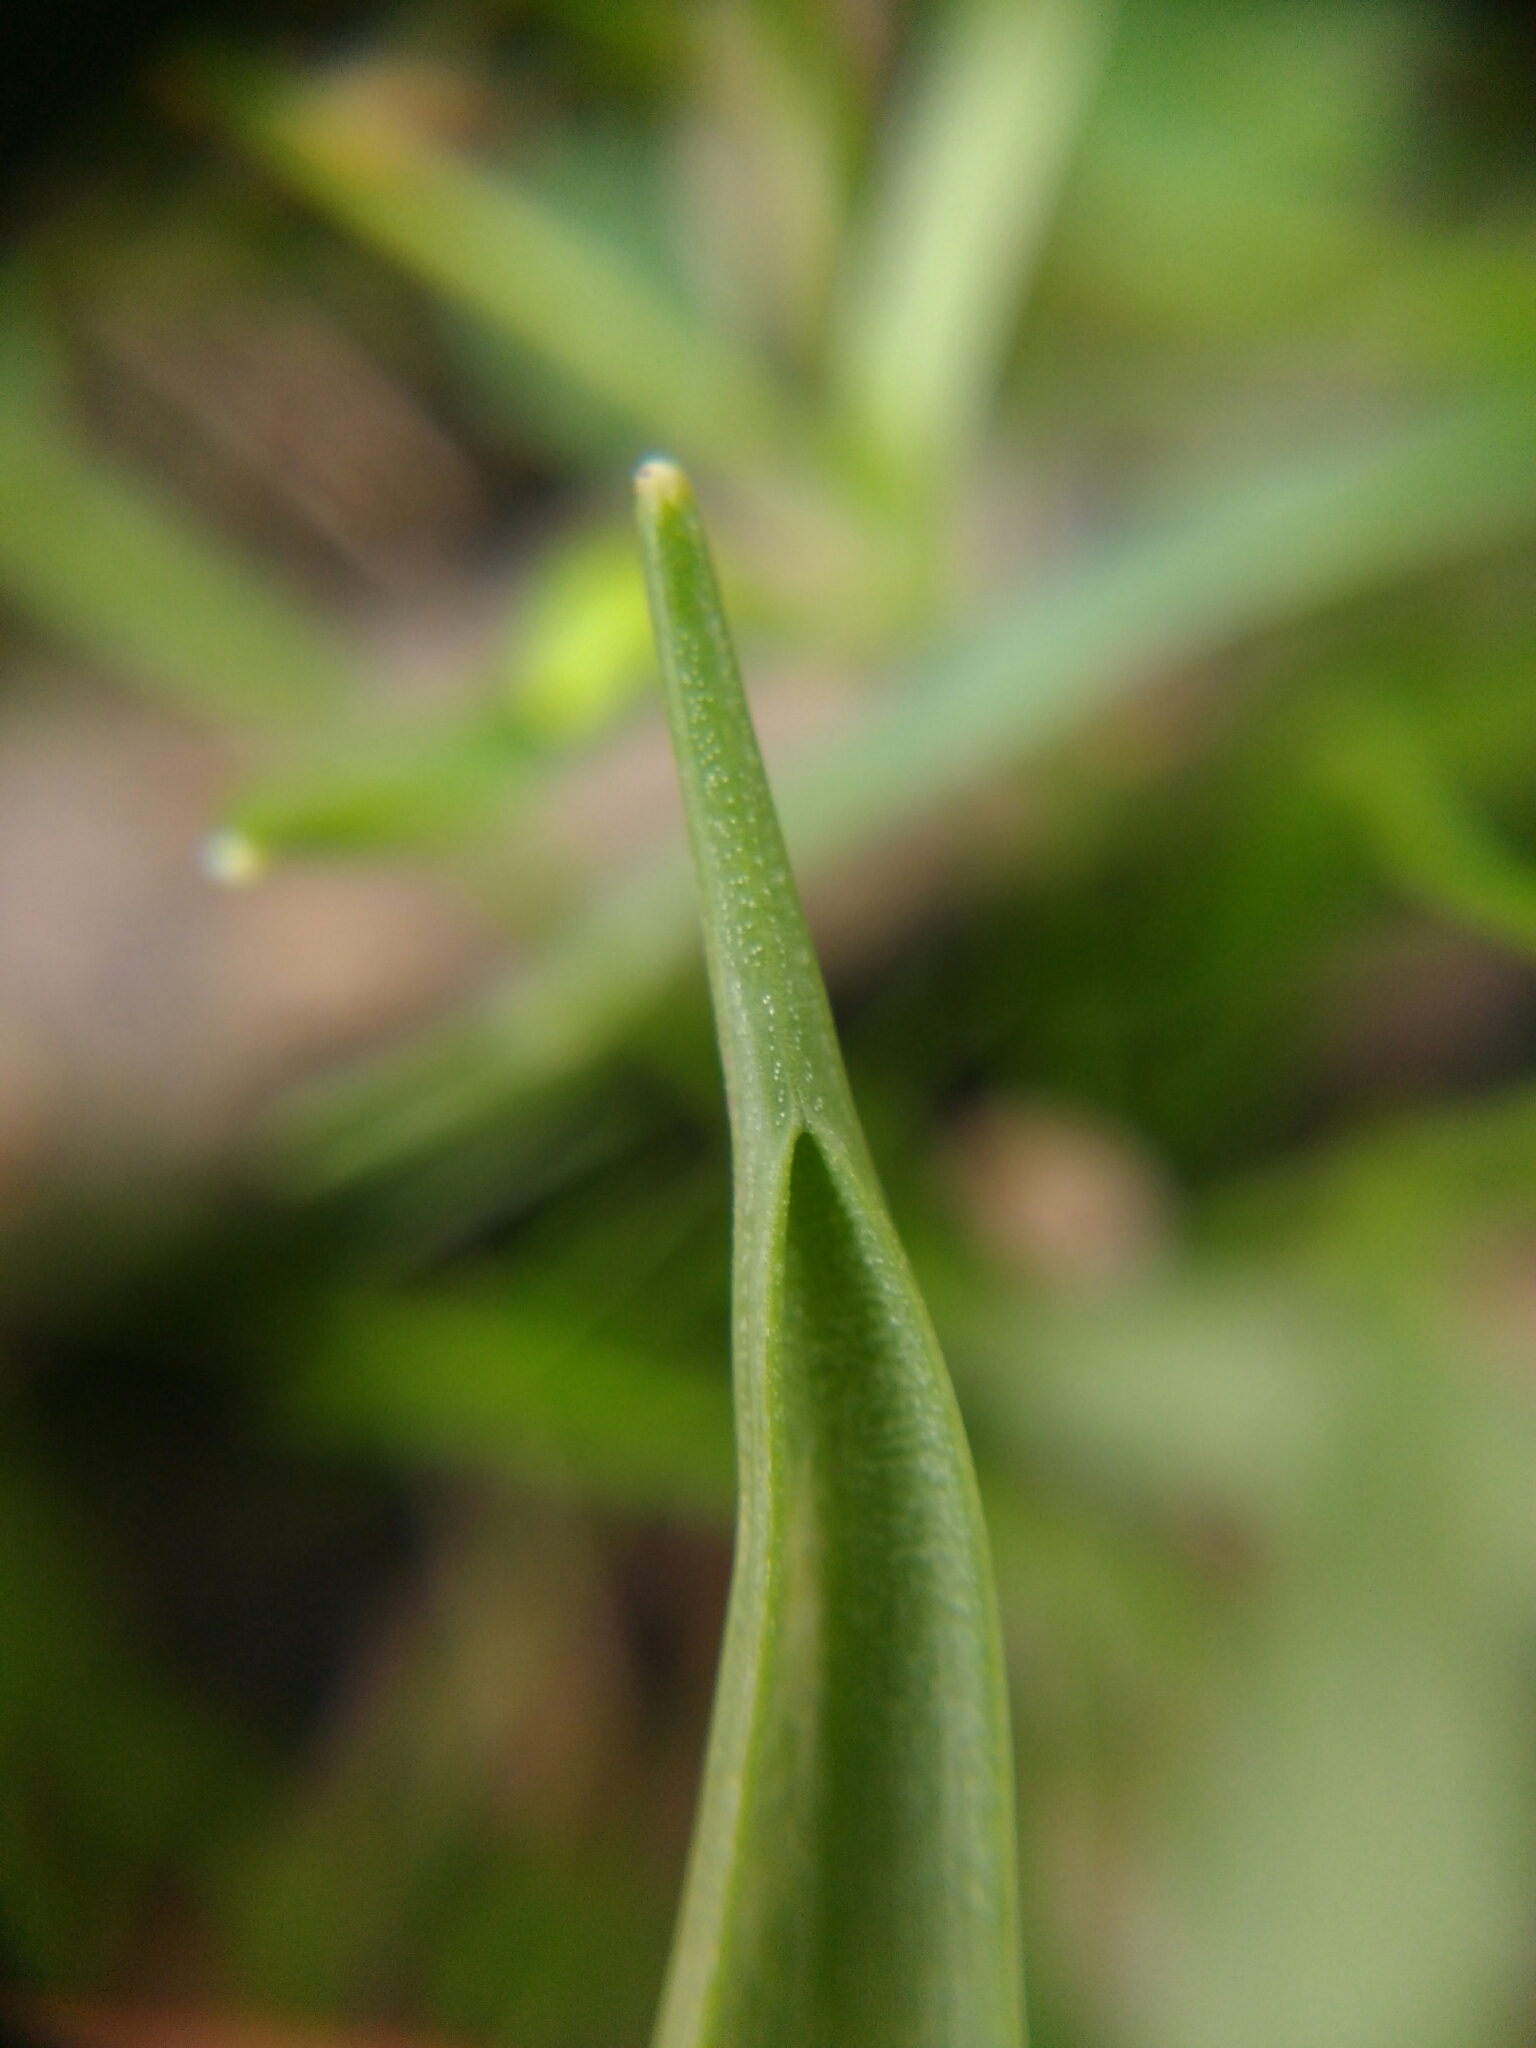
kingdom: Plantae
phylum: Tracheophyta
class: Liliopsida
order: Liliales
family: Liliaceae
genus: Gagea
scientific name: Gagea lutea
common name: Yellow star-of-bethlehem
